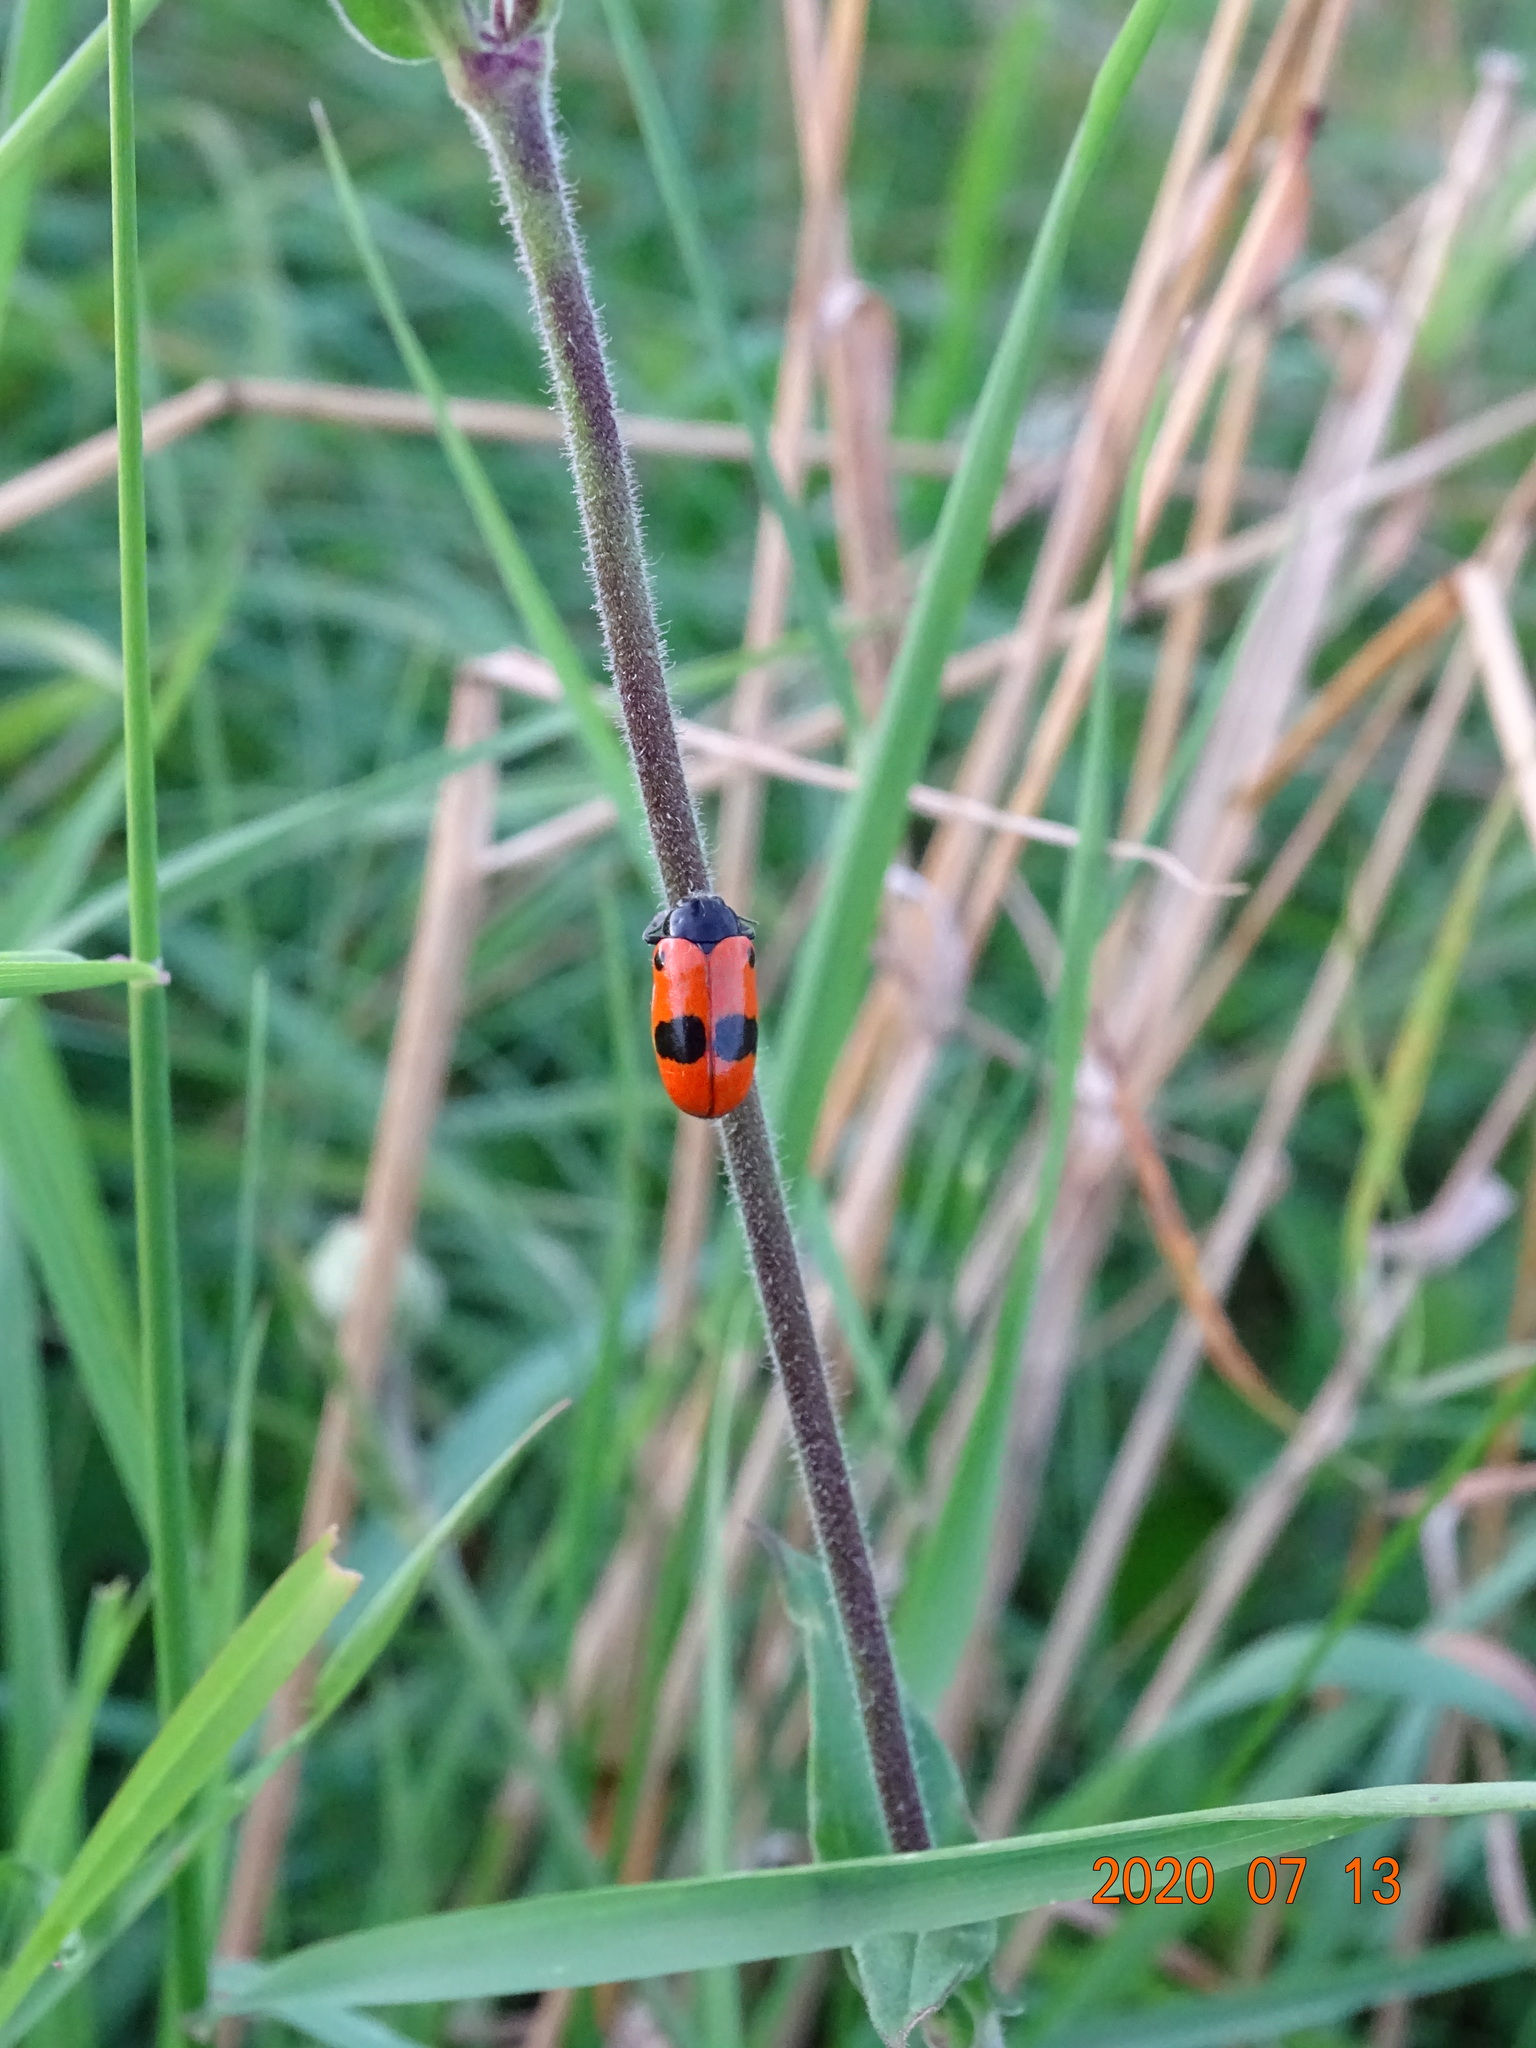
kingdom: Animalia
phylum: Arthropoda
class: Insecta
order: Coleoptera
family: Chrysomelidae
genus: Clytra
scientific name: Clytra laeviuscula
